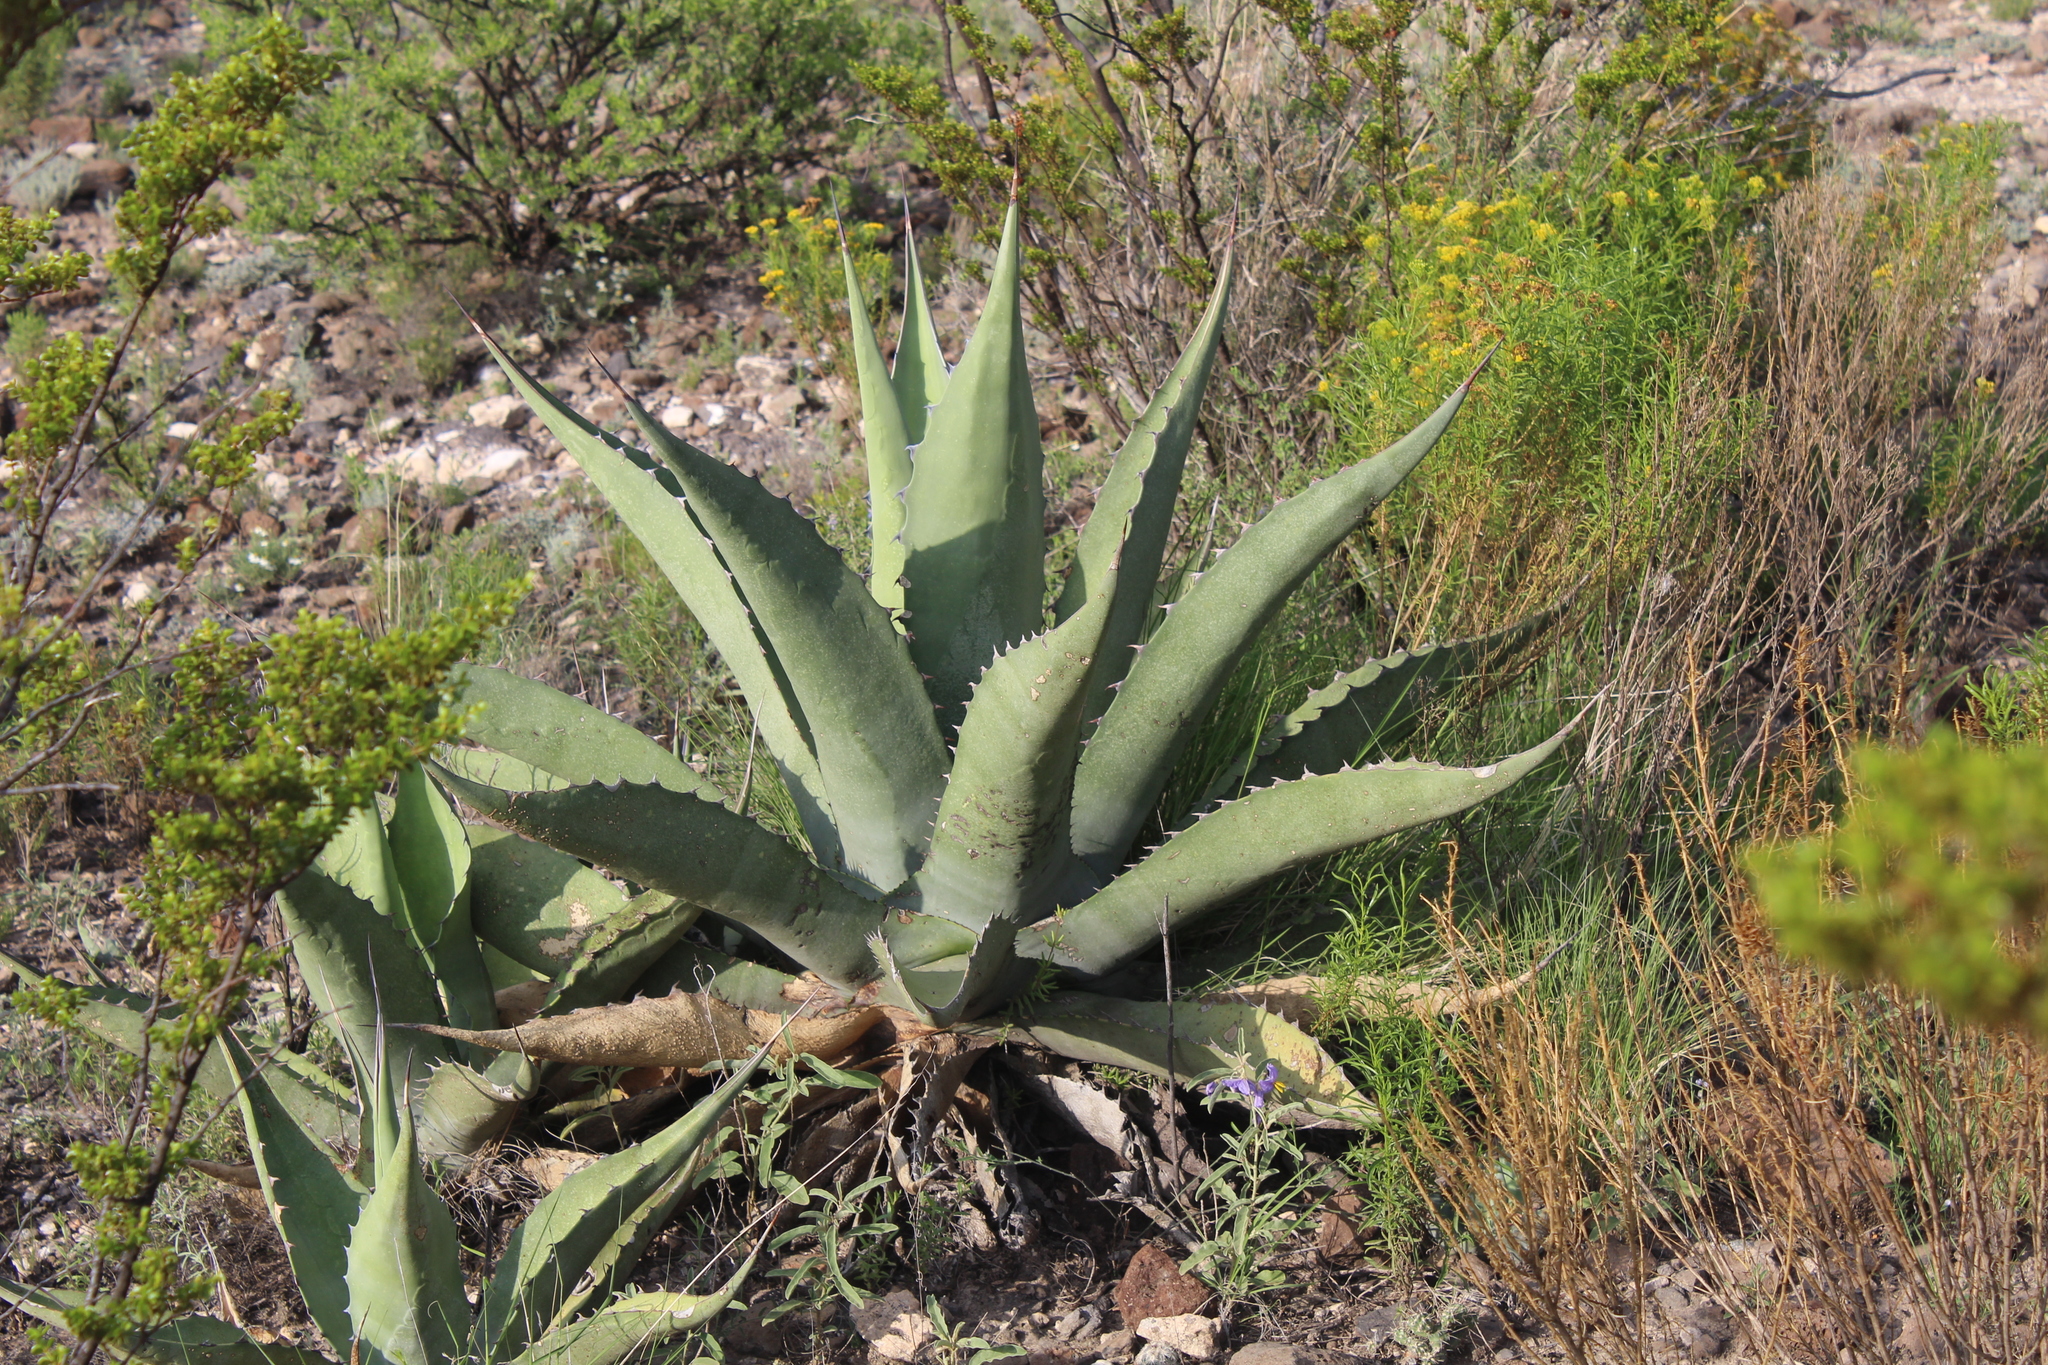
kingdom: Plantae
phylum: Tracheophyta
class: Liliopsida
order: Asparagales
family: Asparagaceae
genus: Agave
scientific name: Agave salmiana
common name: Pulque agave
